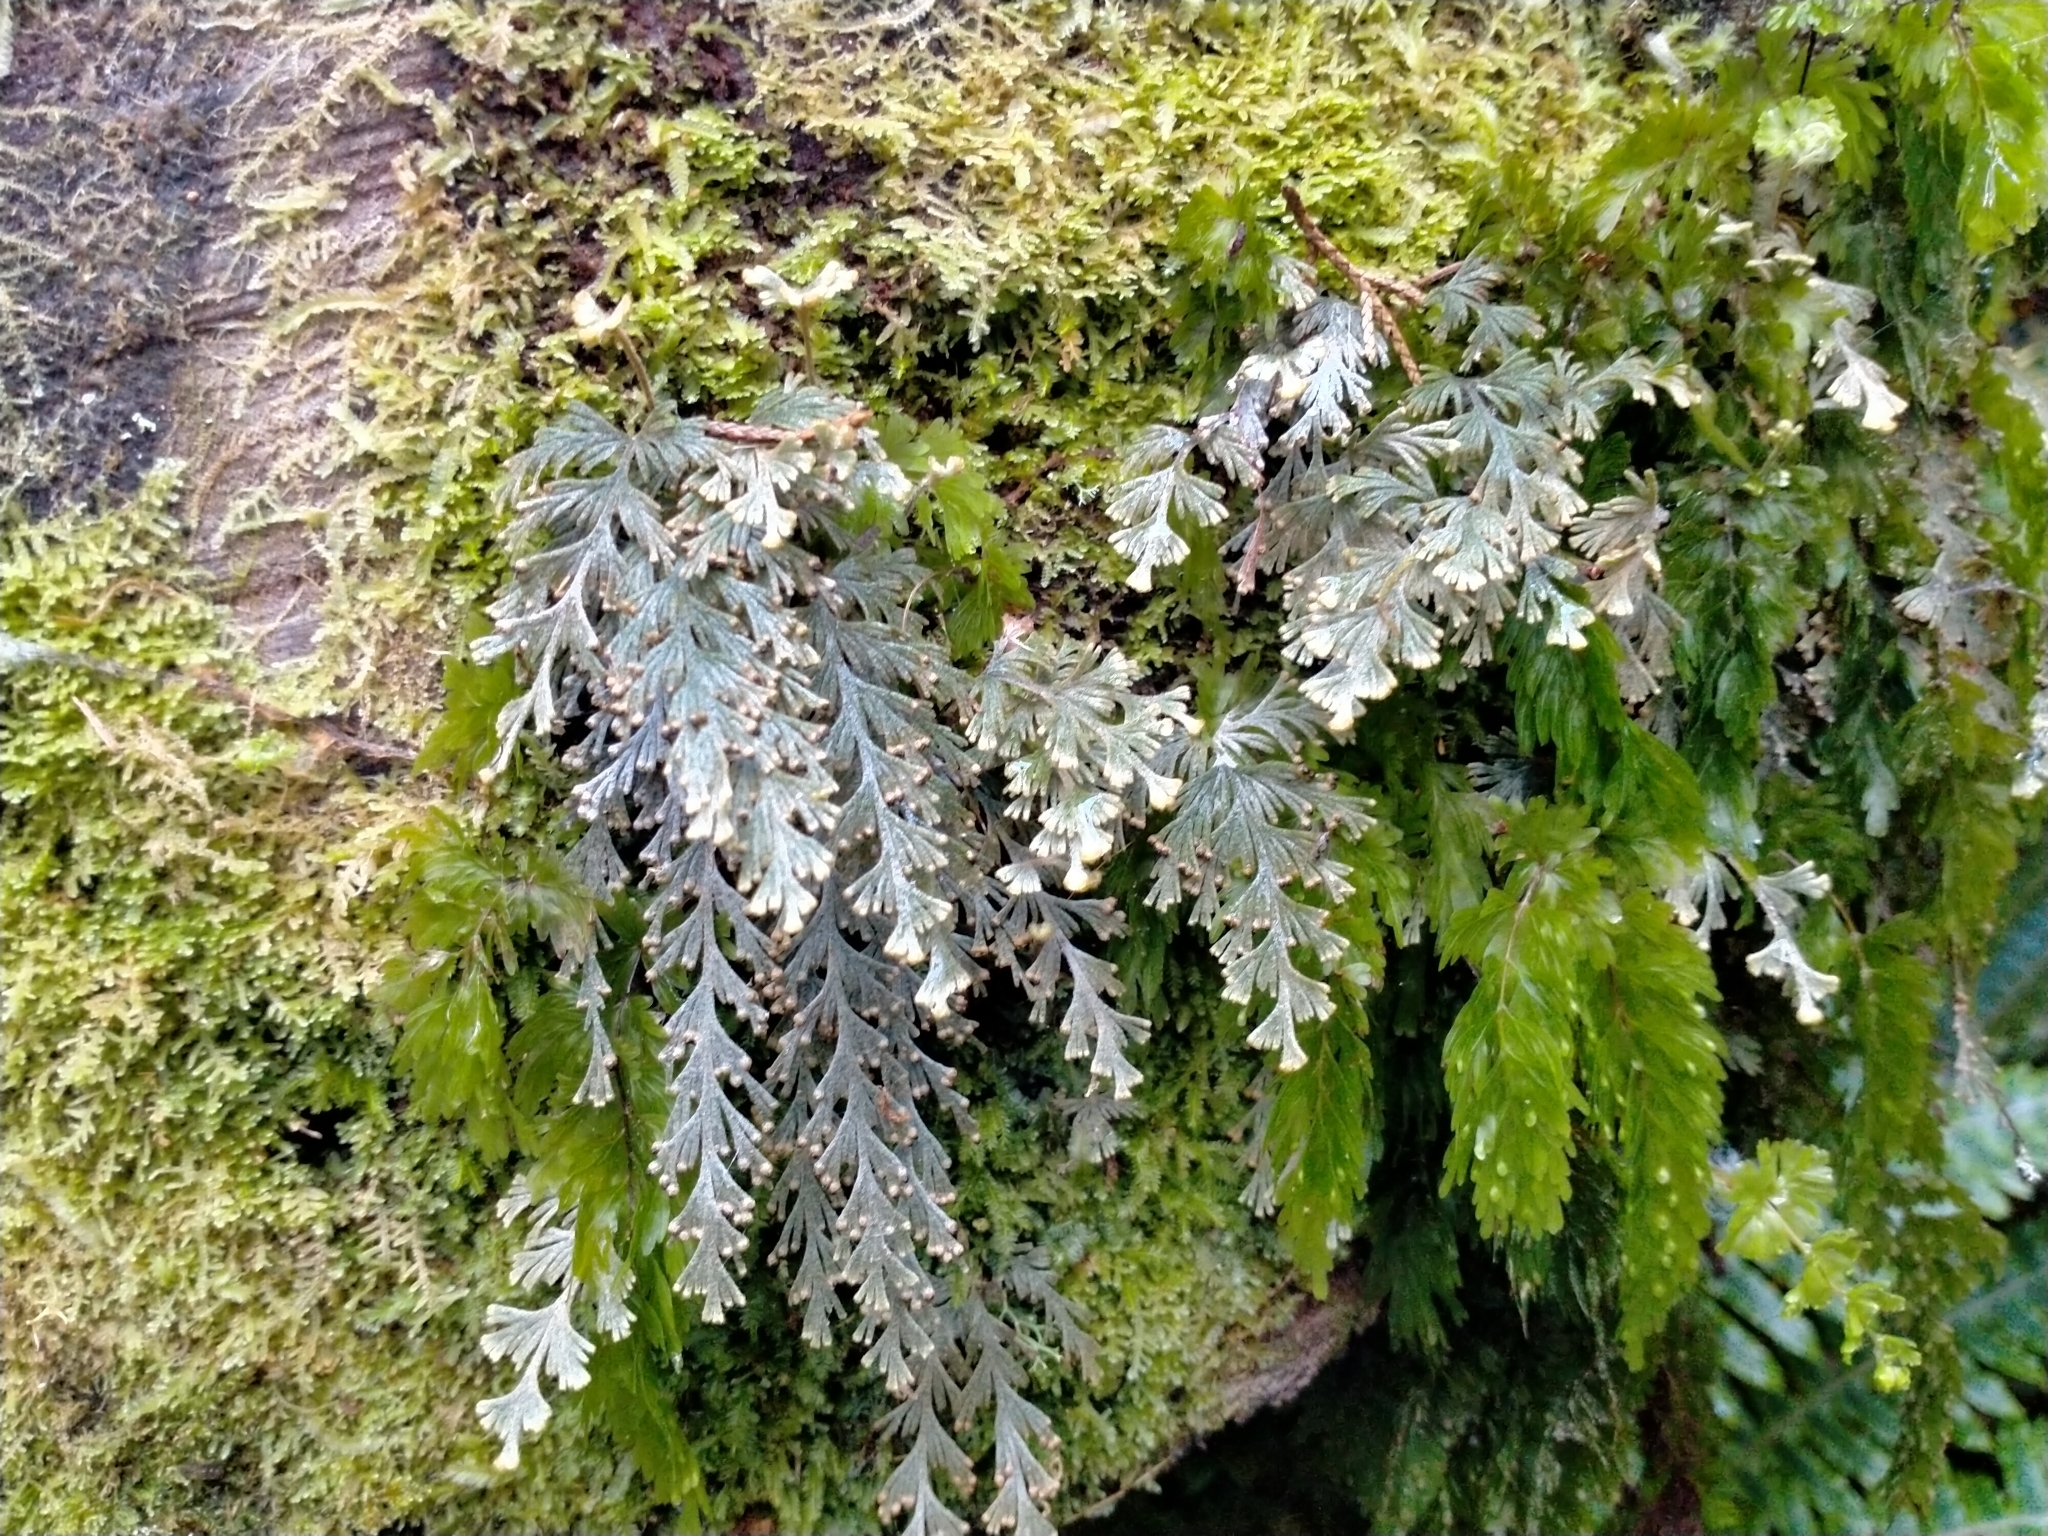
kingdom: Plantae
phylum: Tracheophyta
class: Polypodiopsida
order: Hymenophyllales
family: Hymenophyllaceae
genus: Hymenophyllum
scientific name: Hymenophyllum malingii
